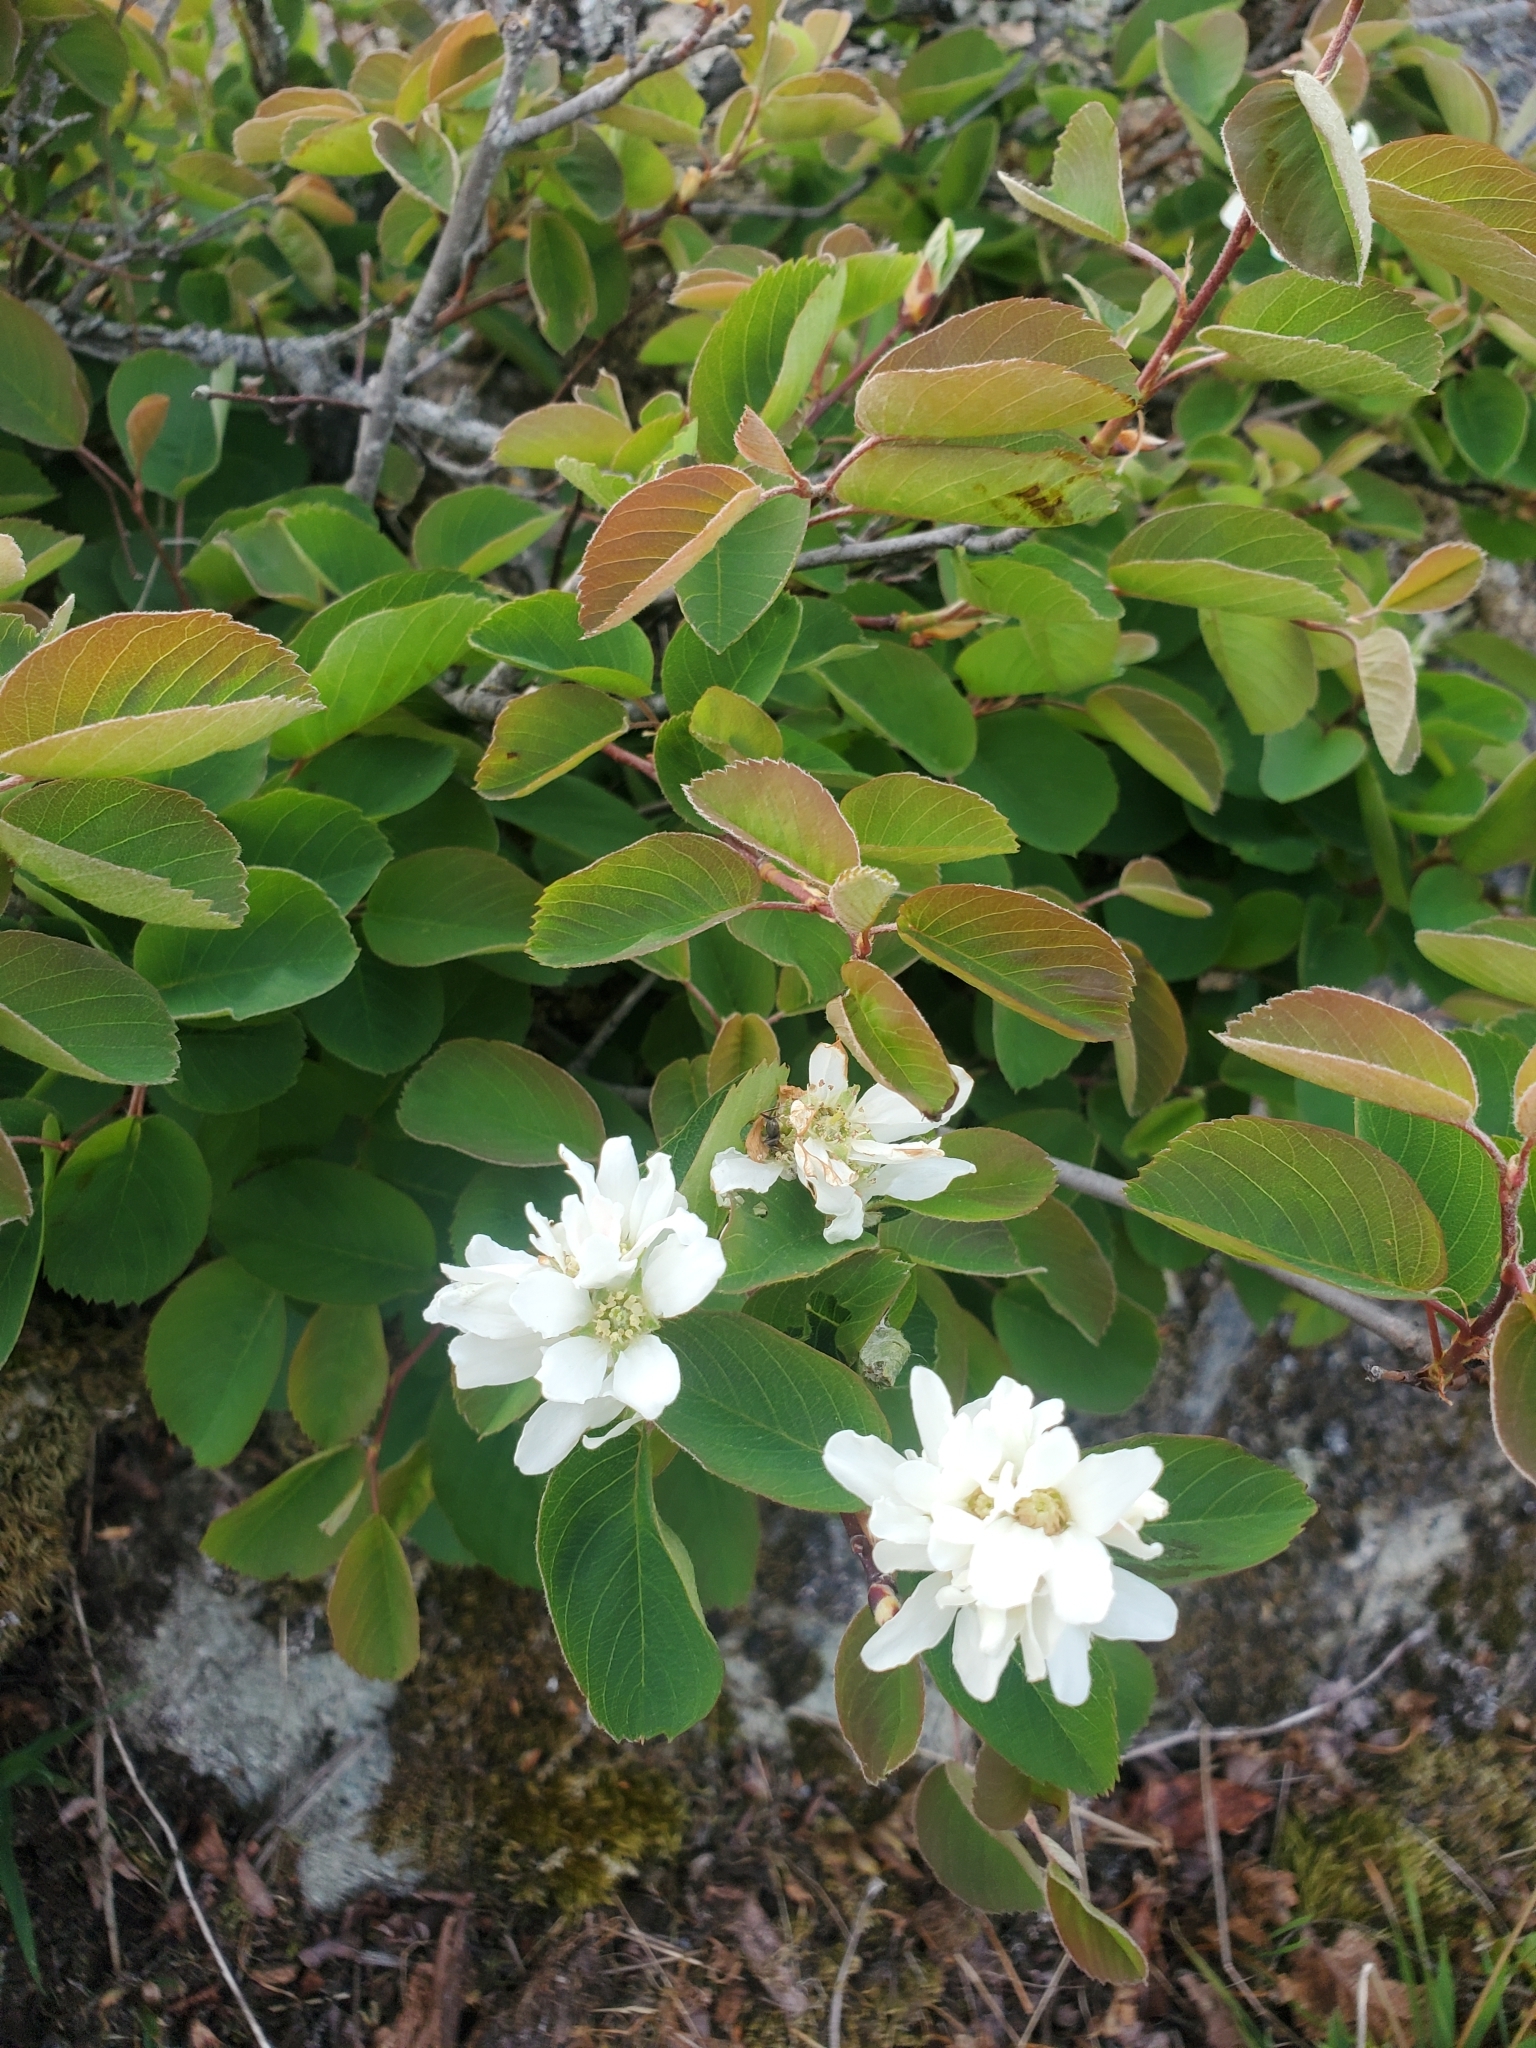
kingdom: Plantae
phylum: Tracheophyta
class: Magnoliopsida
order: Rosales
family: Rosaceae
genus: Amelanchier
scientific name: Amelanchier alnifolia
